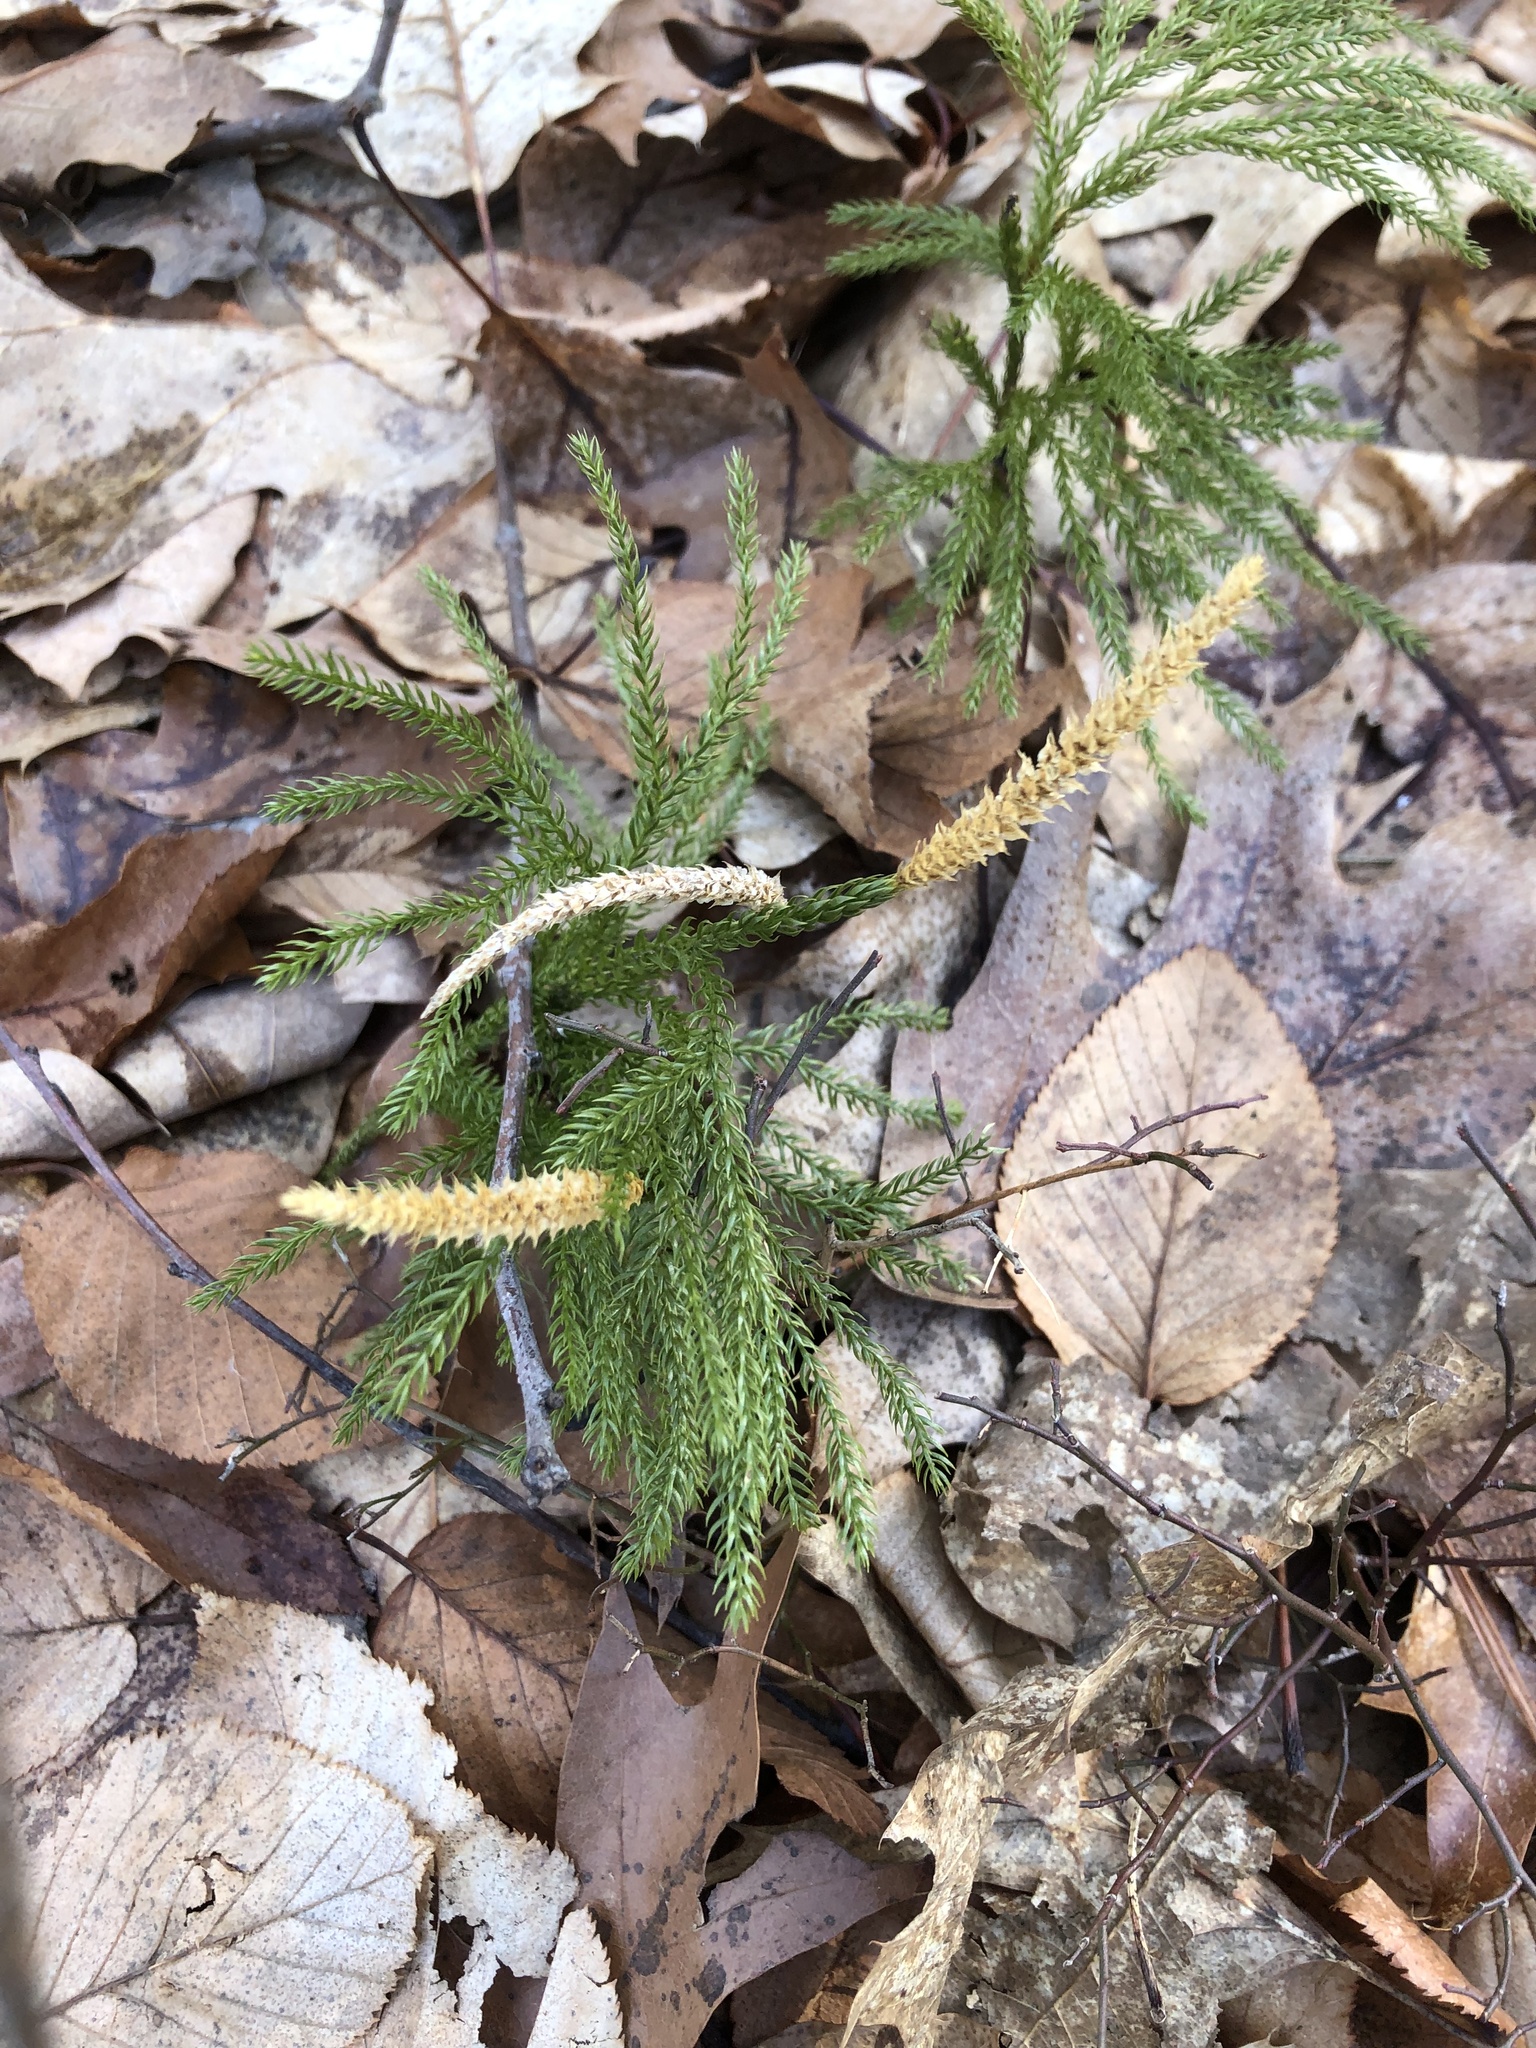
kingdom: Plantae
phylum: Tracheophyta
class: Lycopodiopsida
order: Lycopodiales
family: Lycopodiaceae
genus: Dendrolycopodium
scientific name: Dendrolycopodium hickeyi
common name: Hickey's clubmoss
